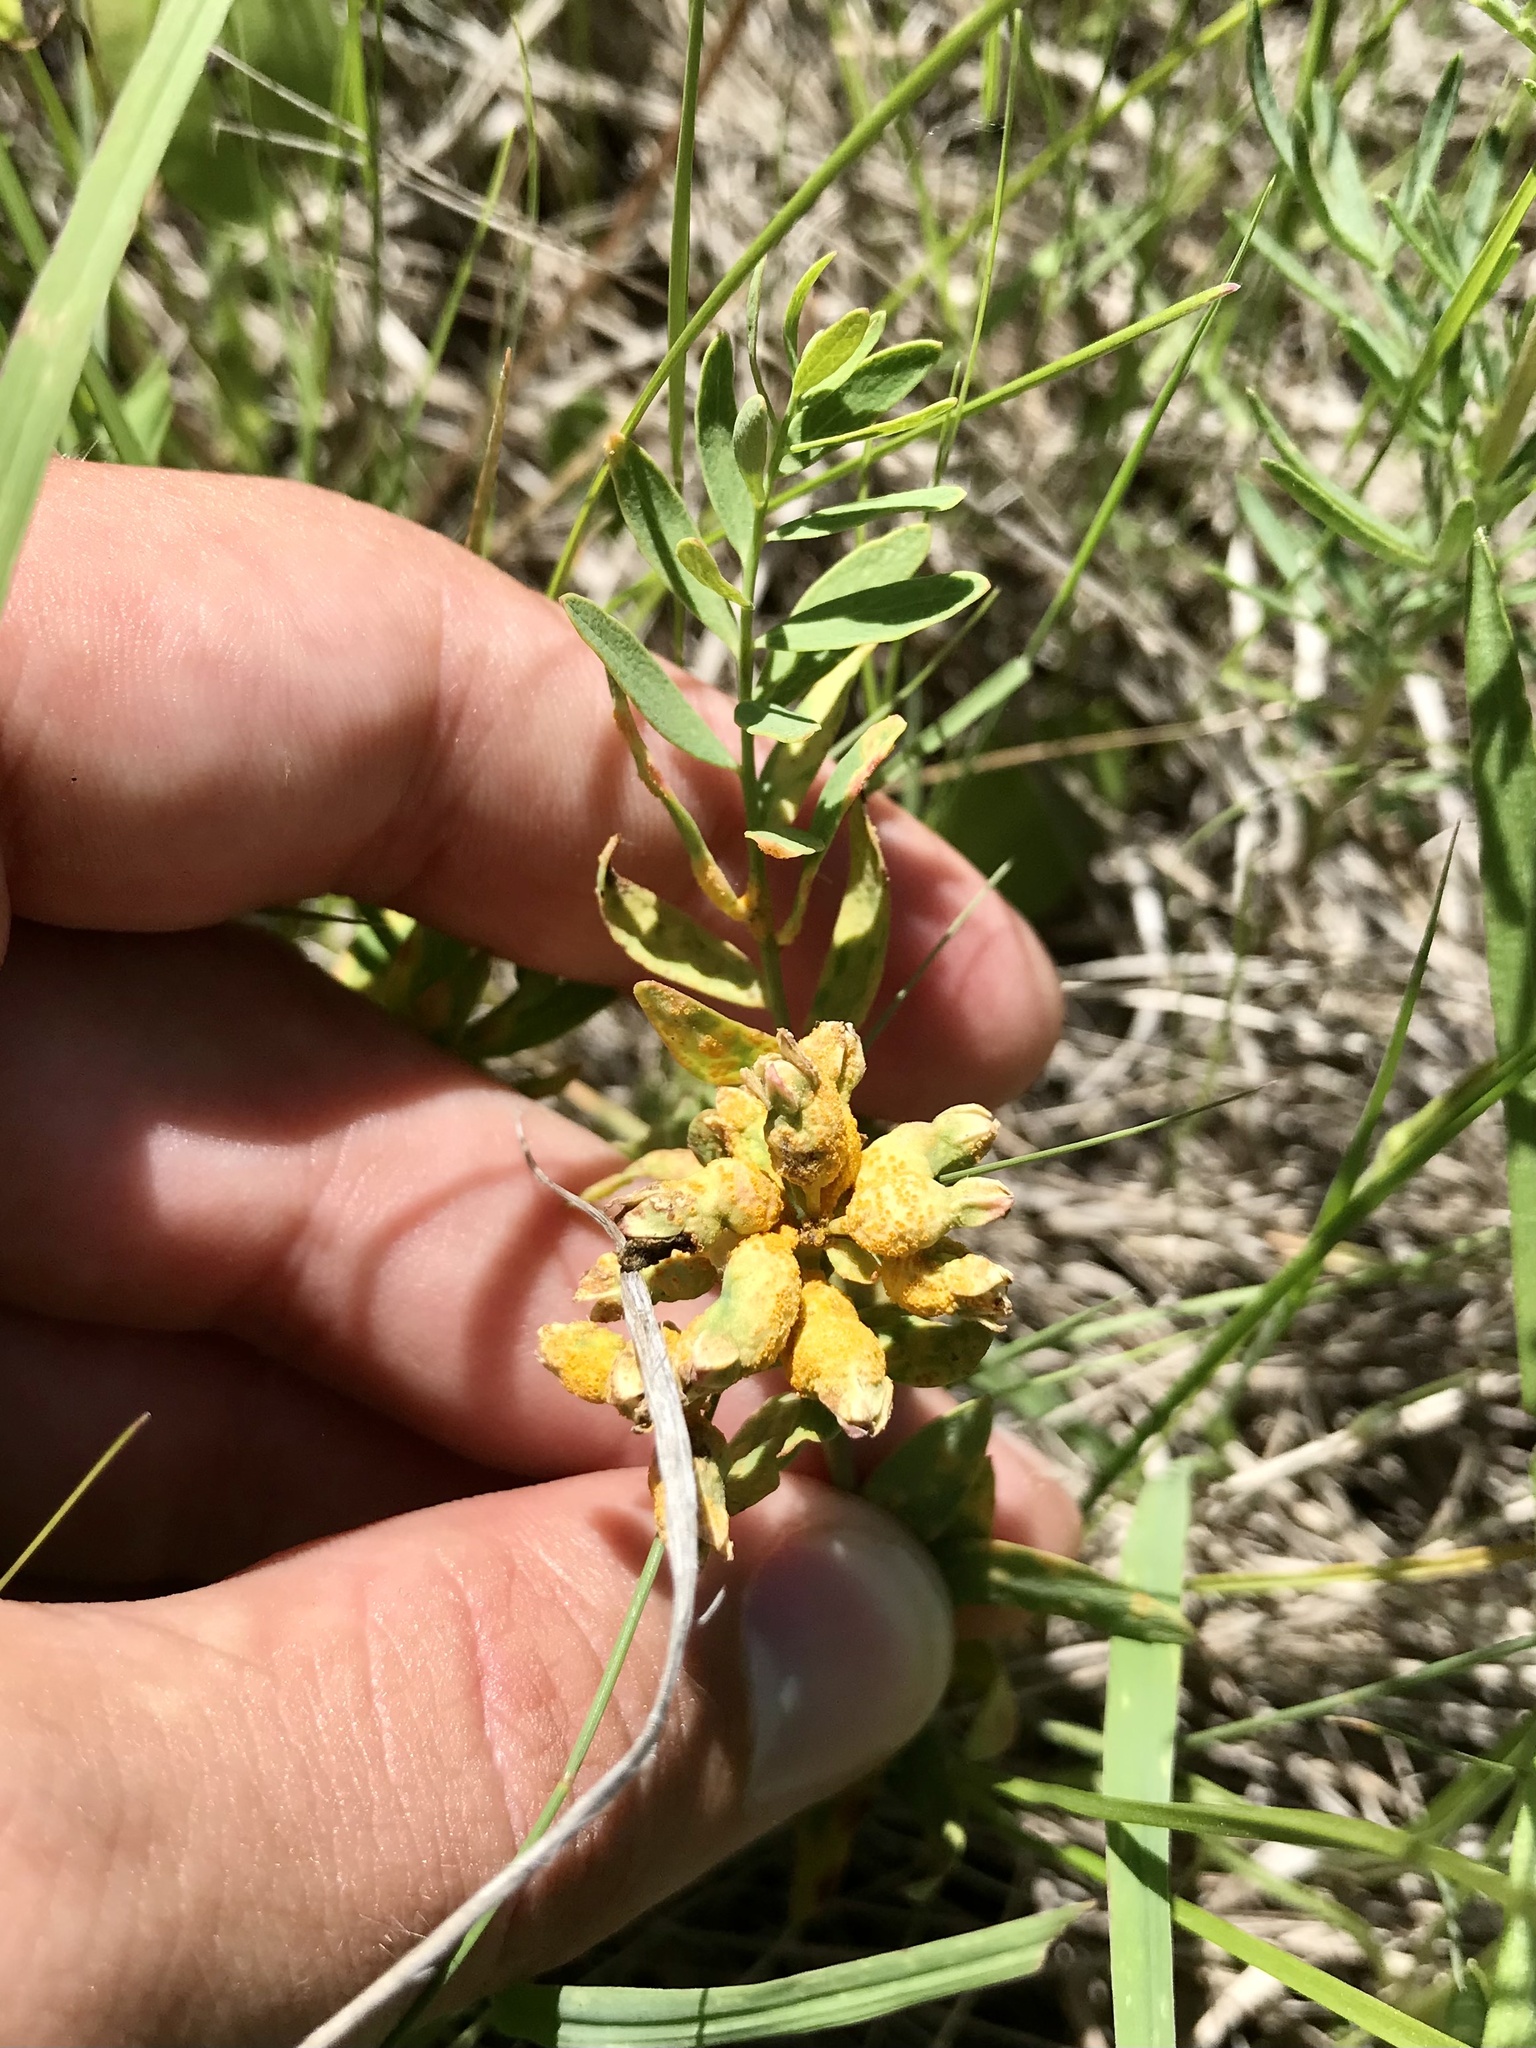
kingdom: Plantae
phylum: Tracheophyta
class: Magnoliopsida
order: Santalales
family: Comandraceae
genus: Comandra
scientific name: Comandra umbellata
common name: Bastard toadflax
